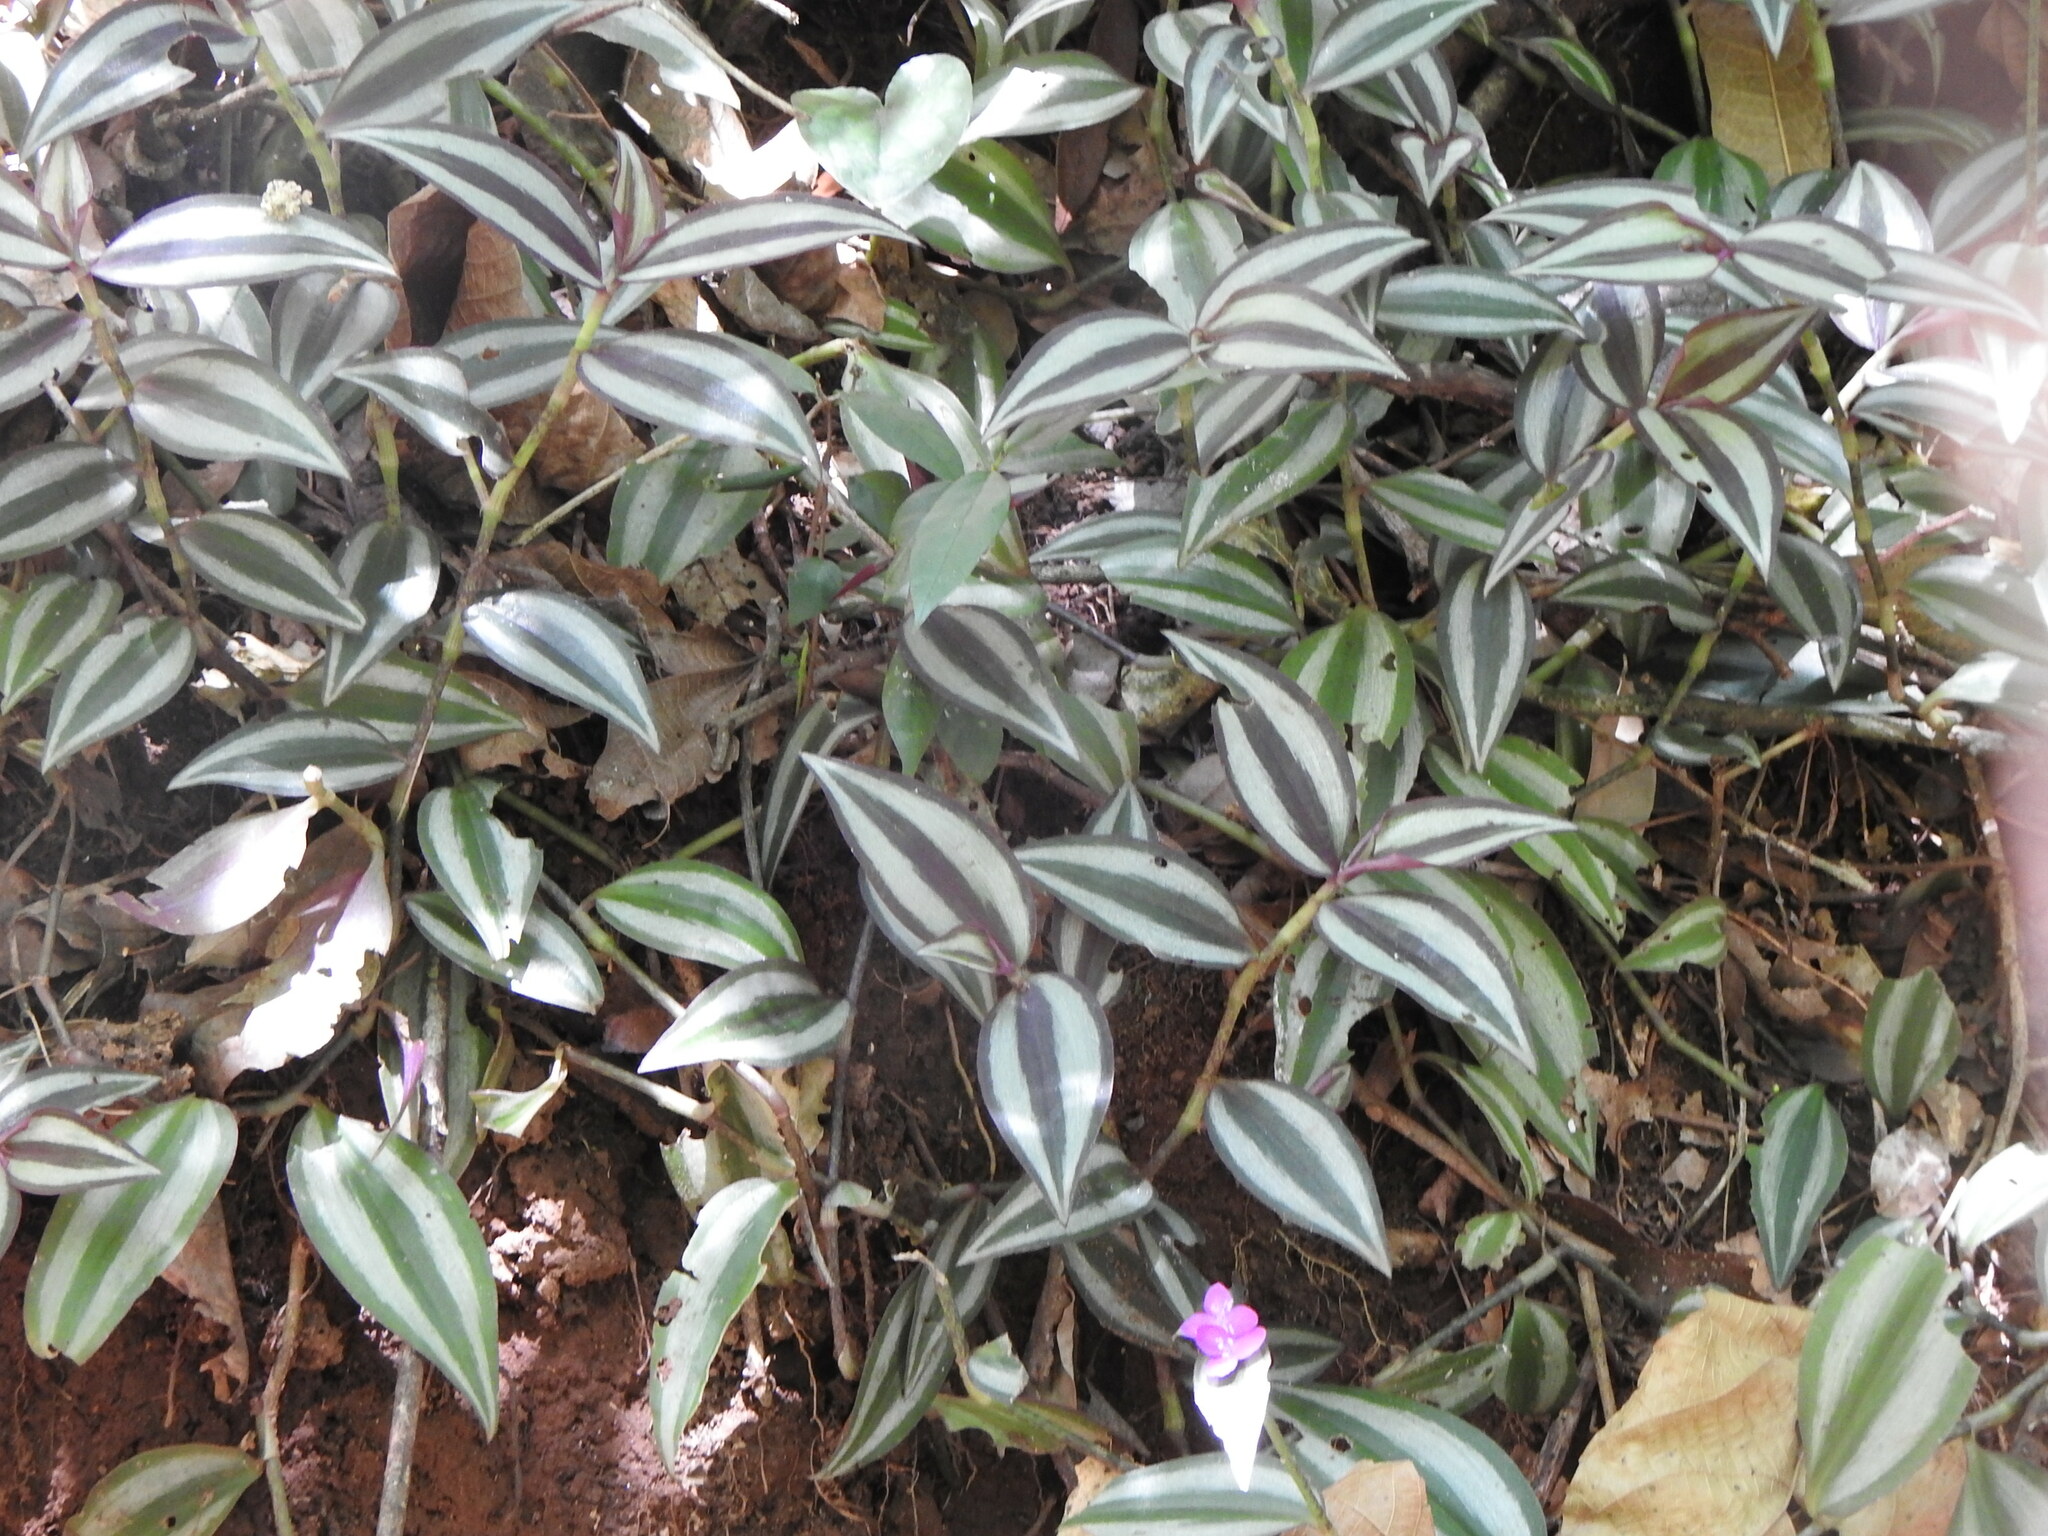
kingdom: Plantae
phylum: Tracheophyta
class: Liliopsida
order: Commelinales
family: Commelinaceae
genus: Tradescantia
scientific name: Tradescantia zebrina
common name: Inchplant
